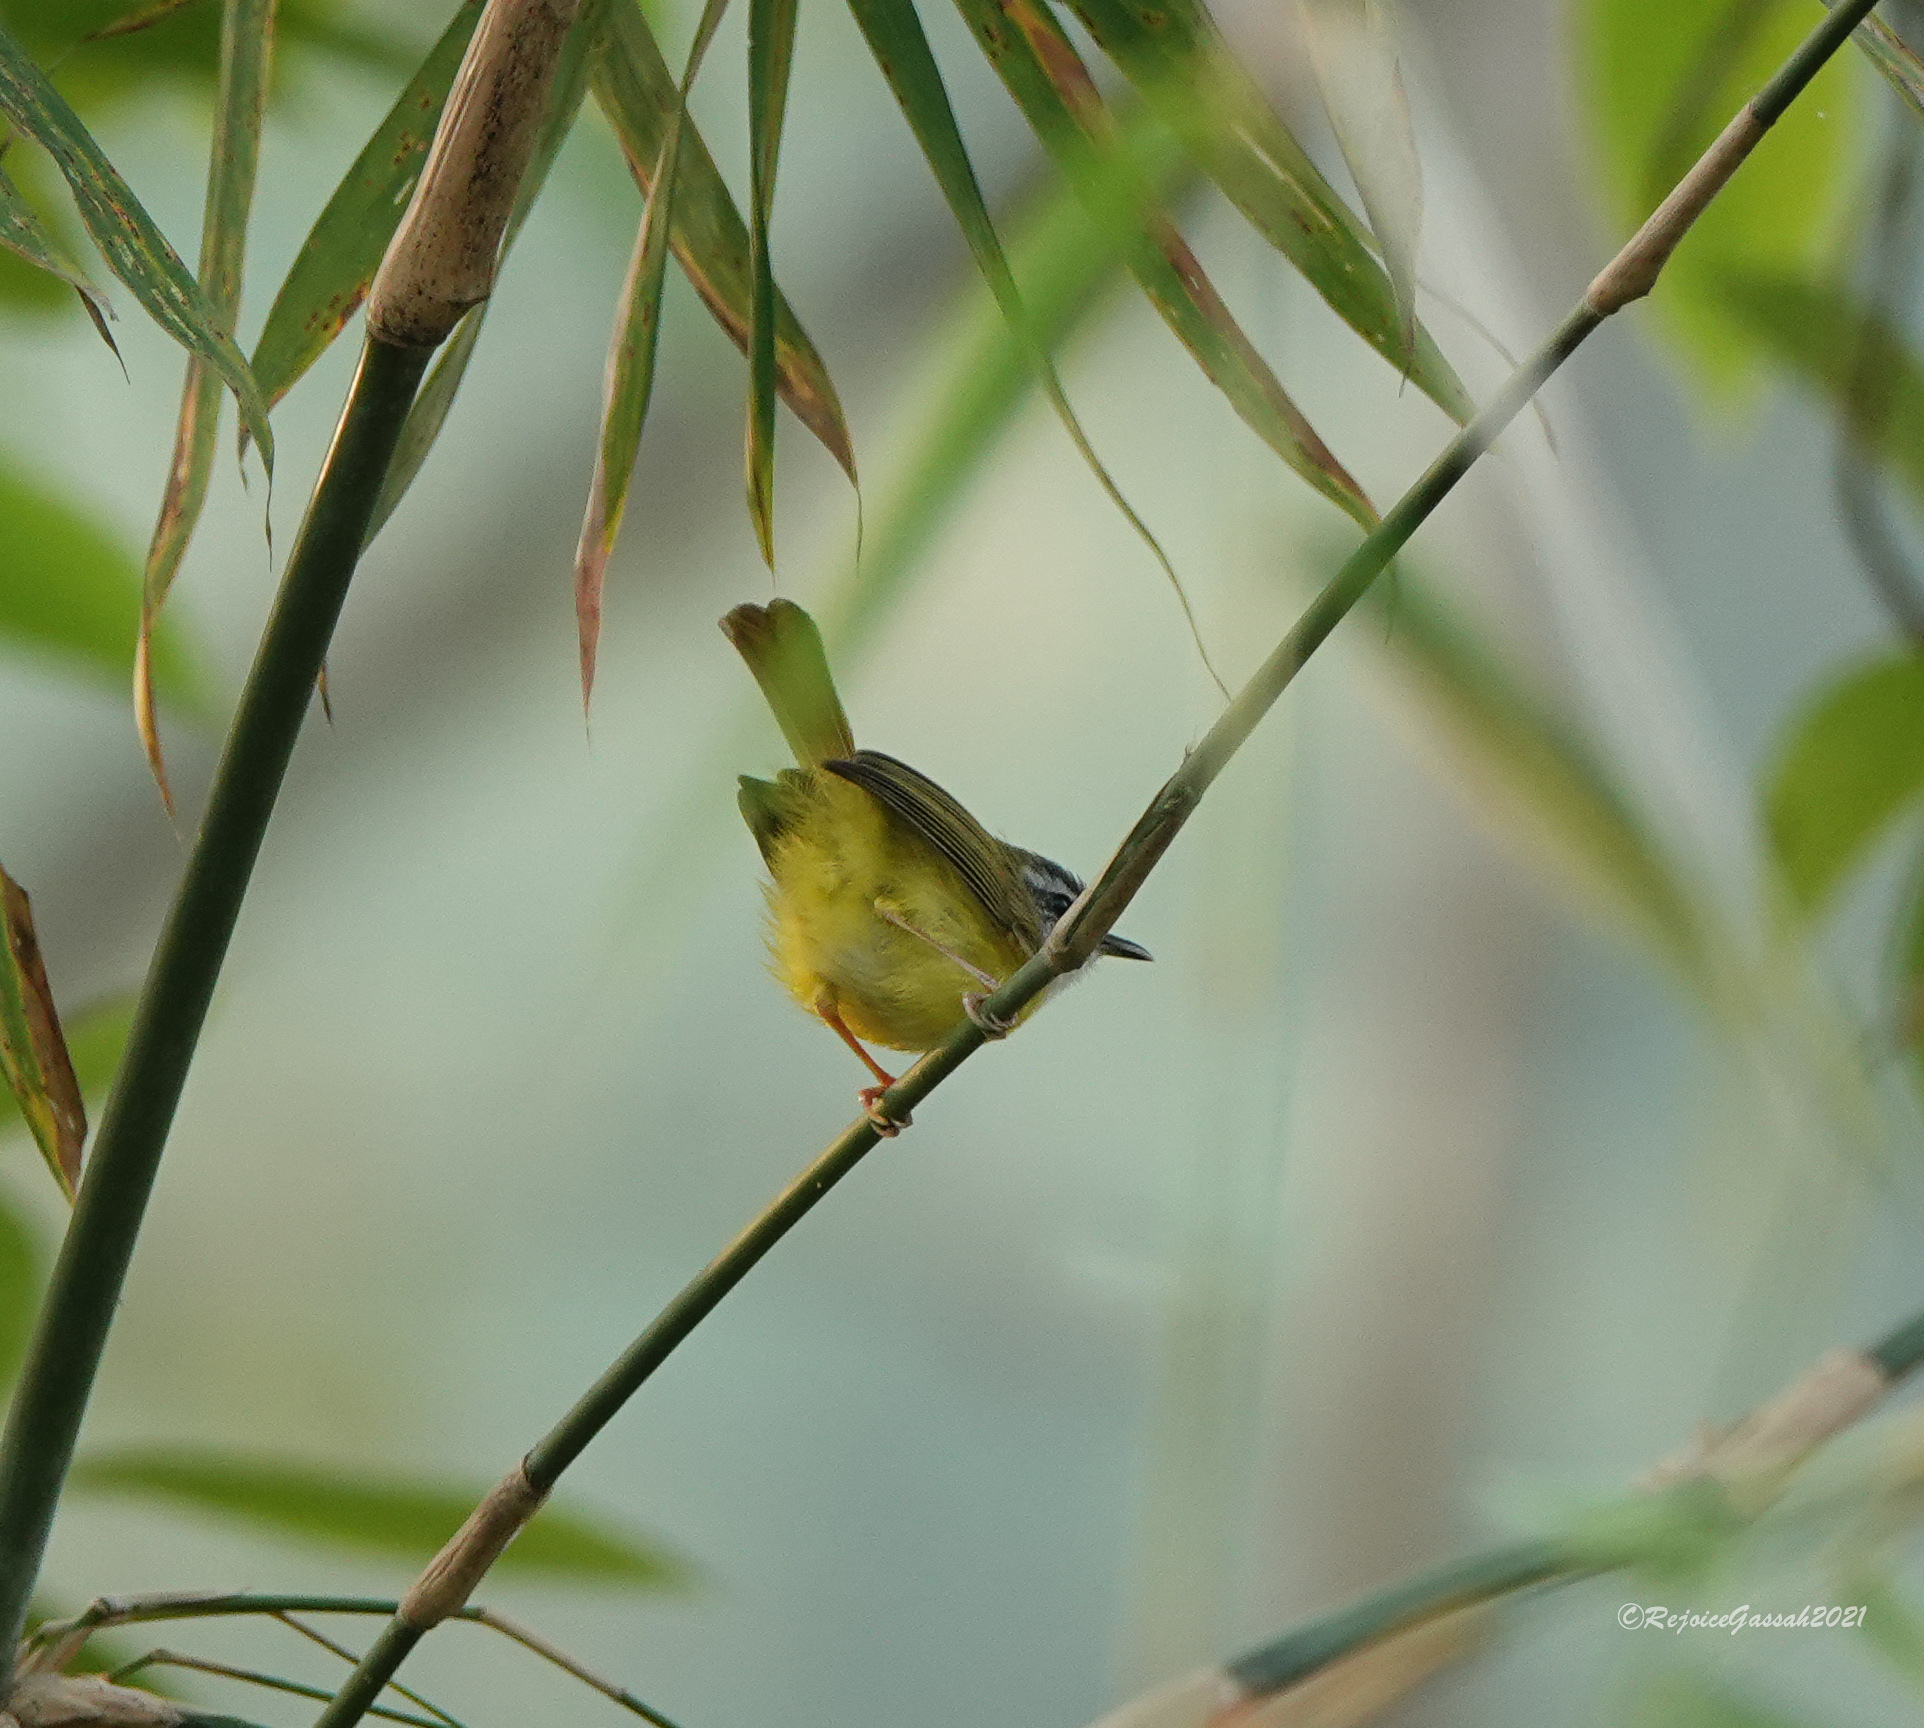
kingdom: Animalia
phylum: Chordata
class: Aves
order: Passeriformes
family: Cettiidae
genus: Abroscopus
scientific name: Abroscopus superciliaris
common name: Yellow-bellied warbler
